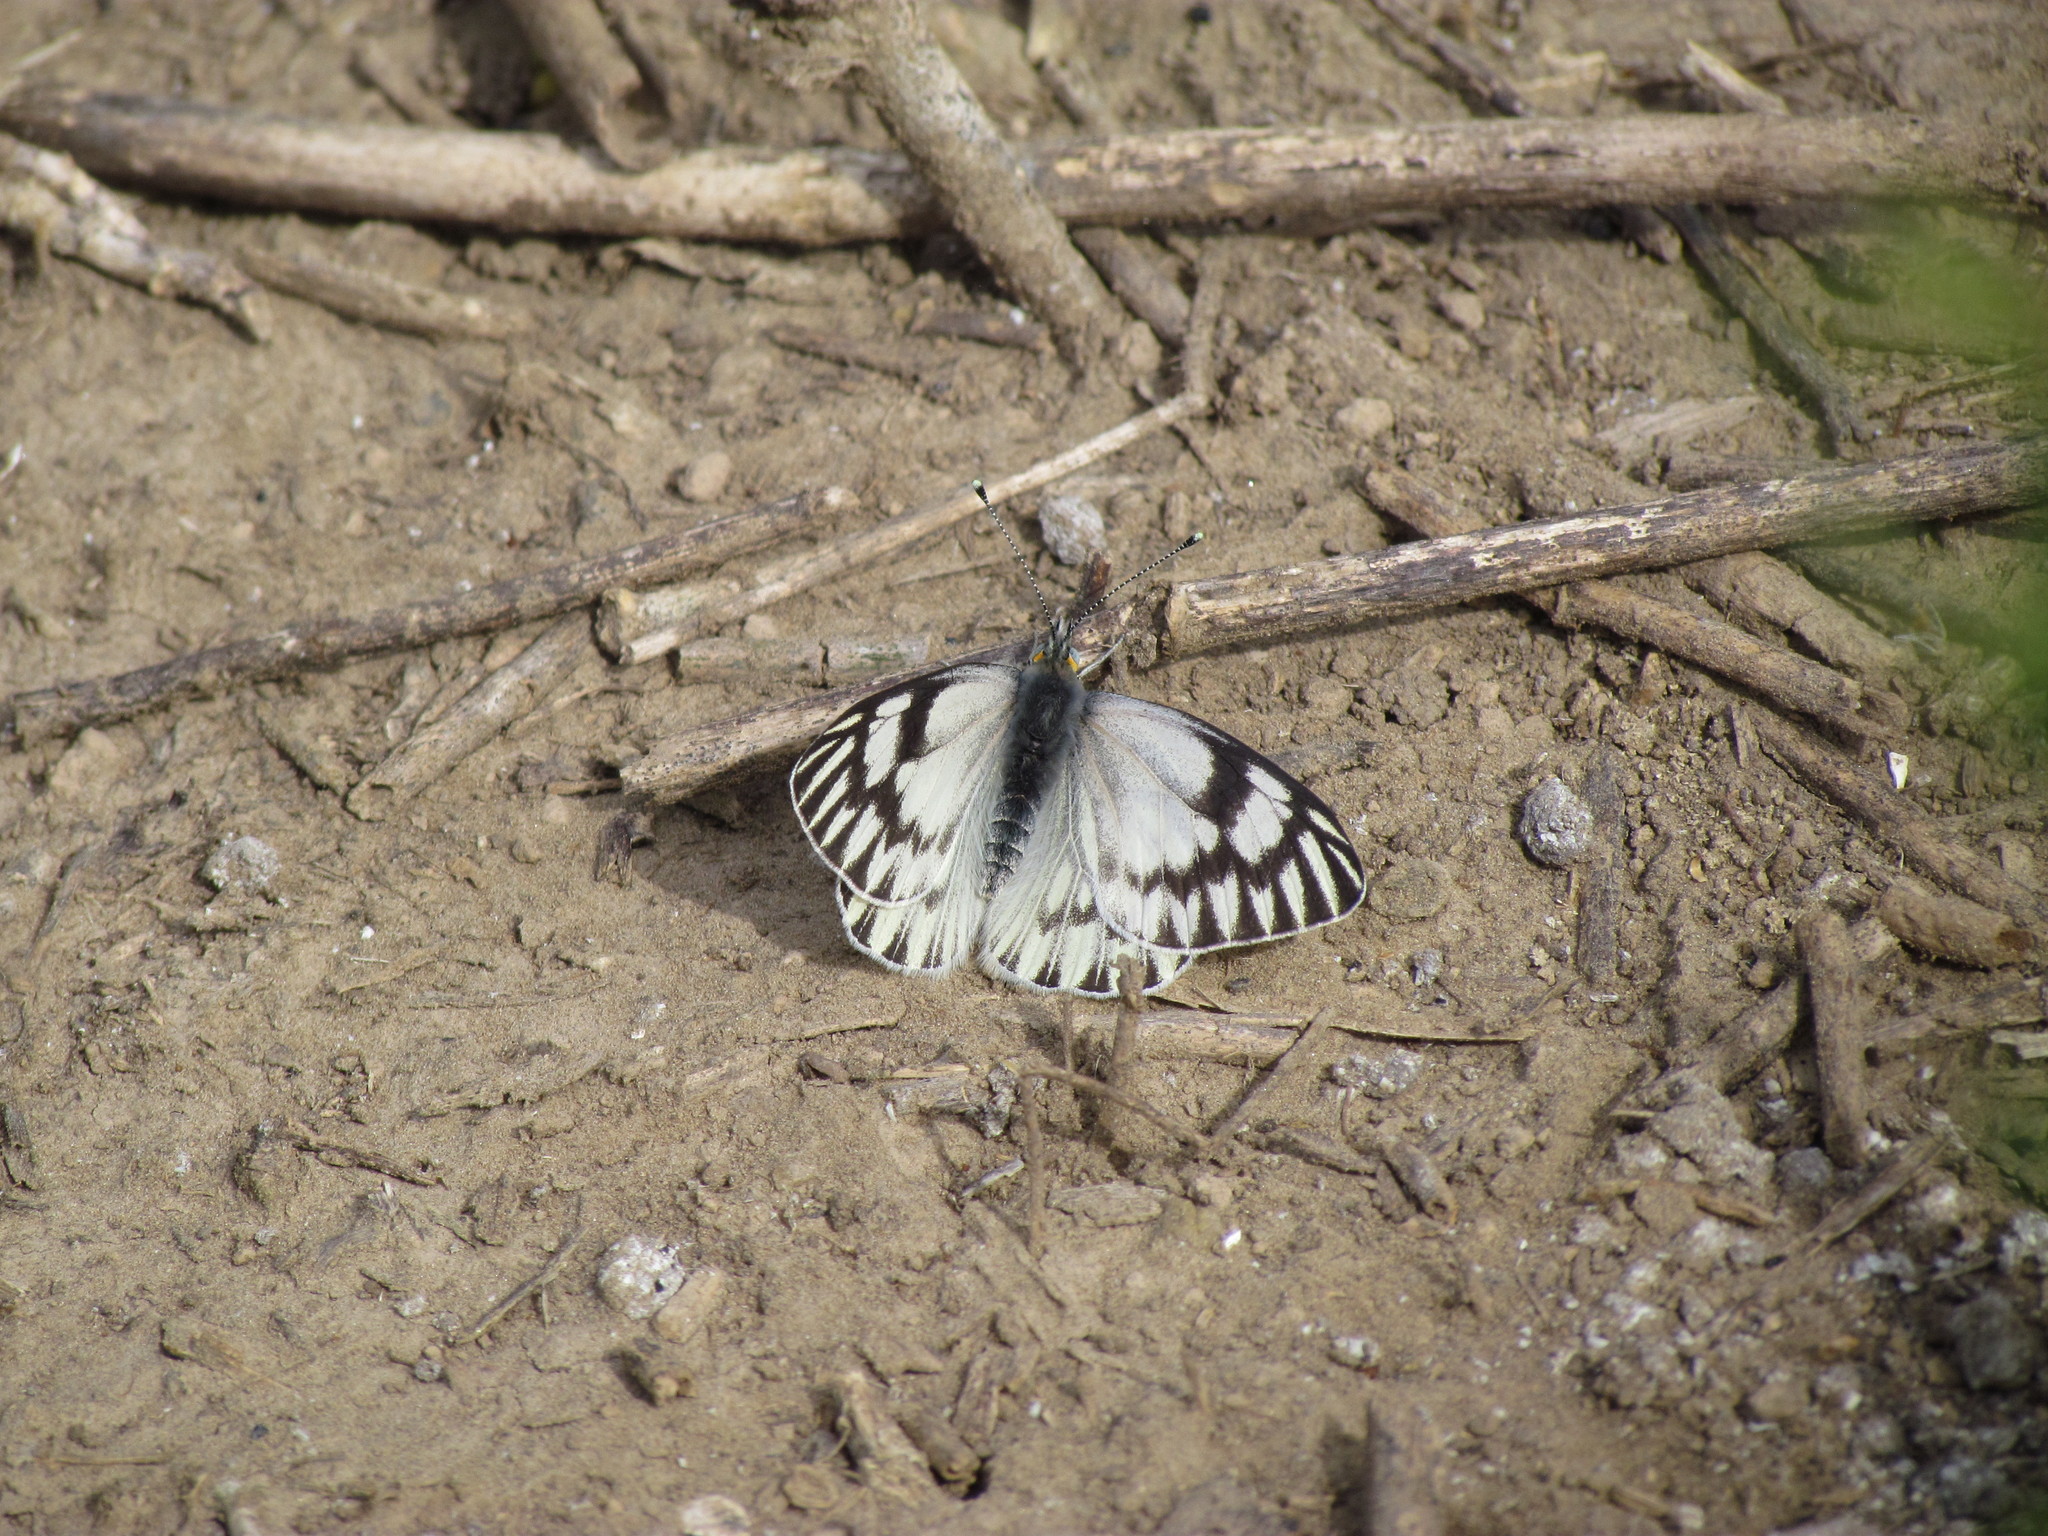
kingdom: Animalia
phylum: Arthropoda
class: Insecta
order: Lepidoptera
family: Pieridae
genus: Tatochila
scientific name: Tatochila mercedis
